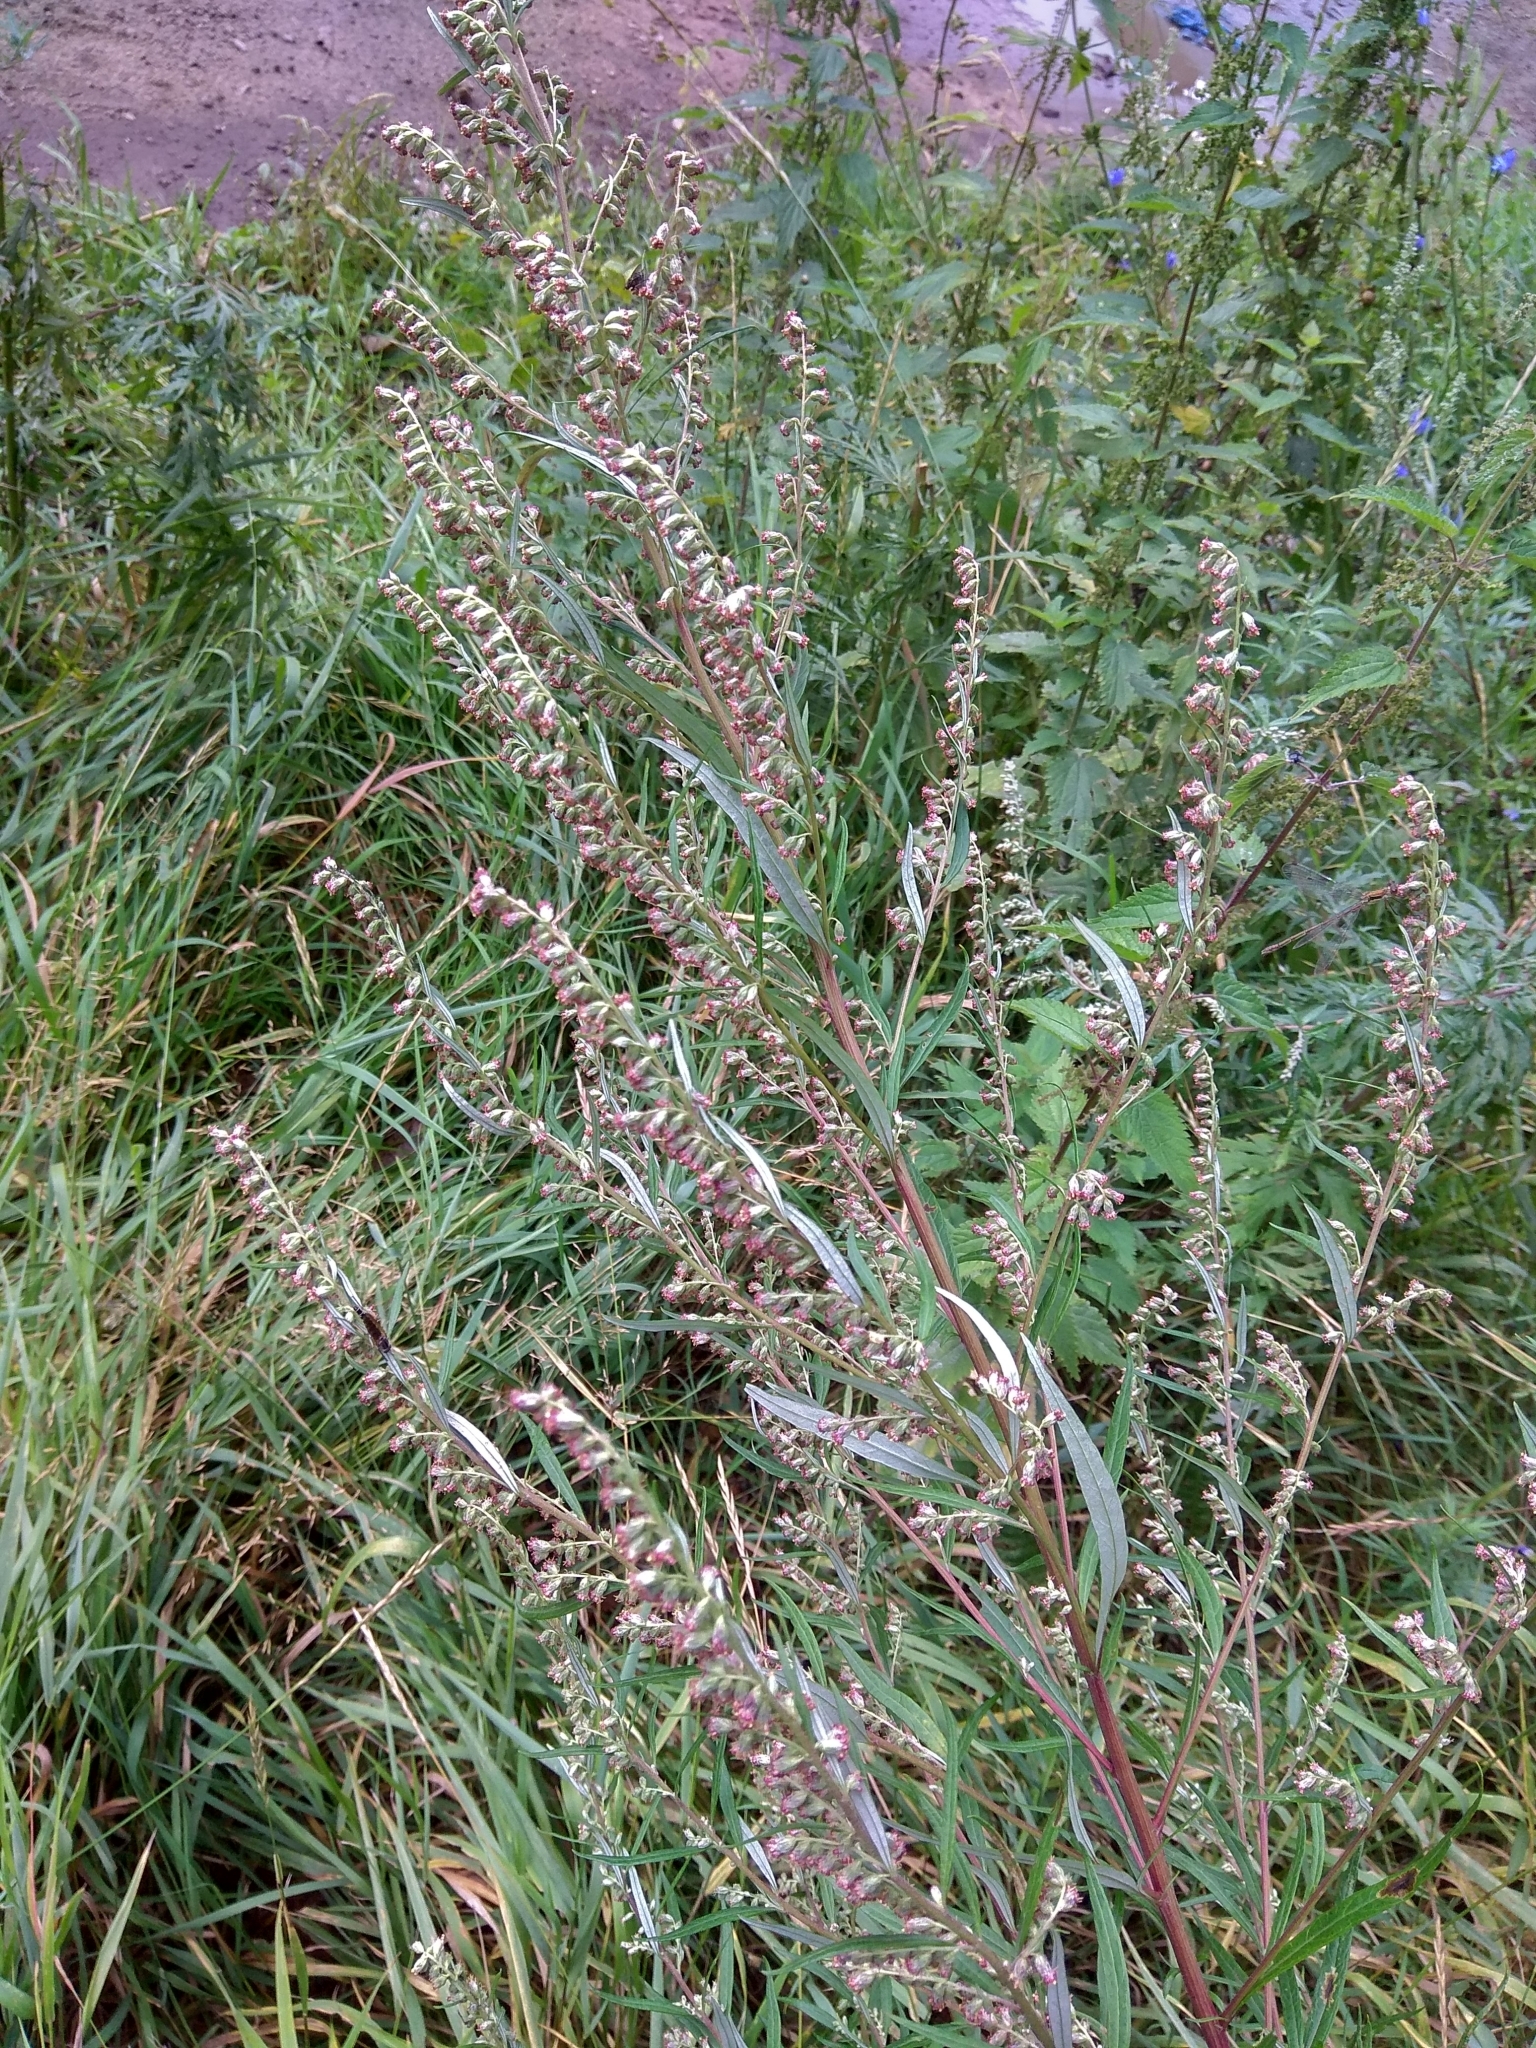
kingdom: Plantae
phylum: Tracheophyta
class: Magnoliopsida
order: Asterales
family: Asteraceae
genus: Artemisia
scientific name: Artemisia vulgaris
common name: Mugwort
